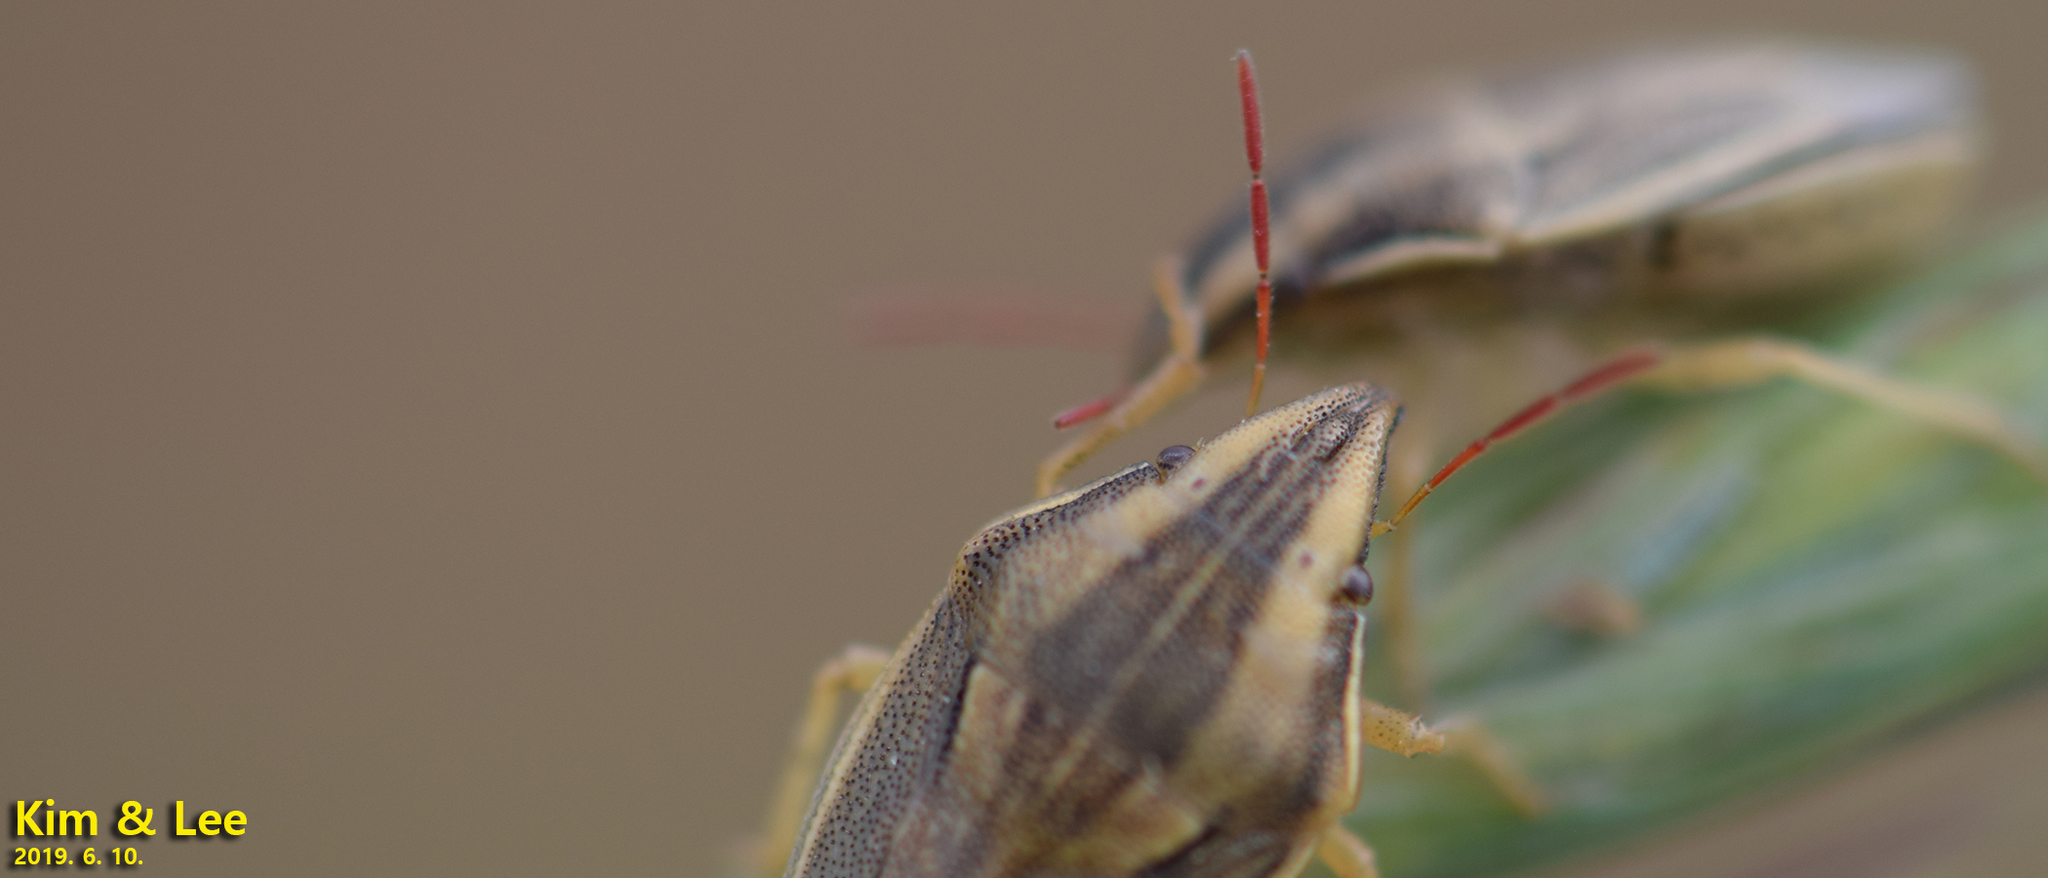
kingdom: Animalia
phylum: Arthropoda
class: Insecta
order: Hemiptera
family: Pentatomidae
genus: Aelia
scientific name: Aelia
